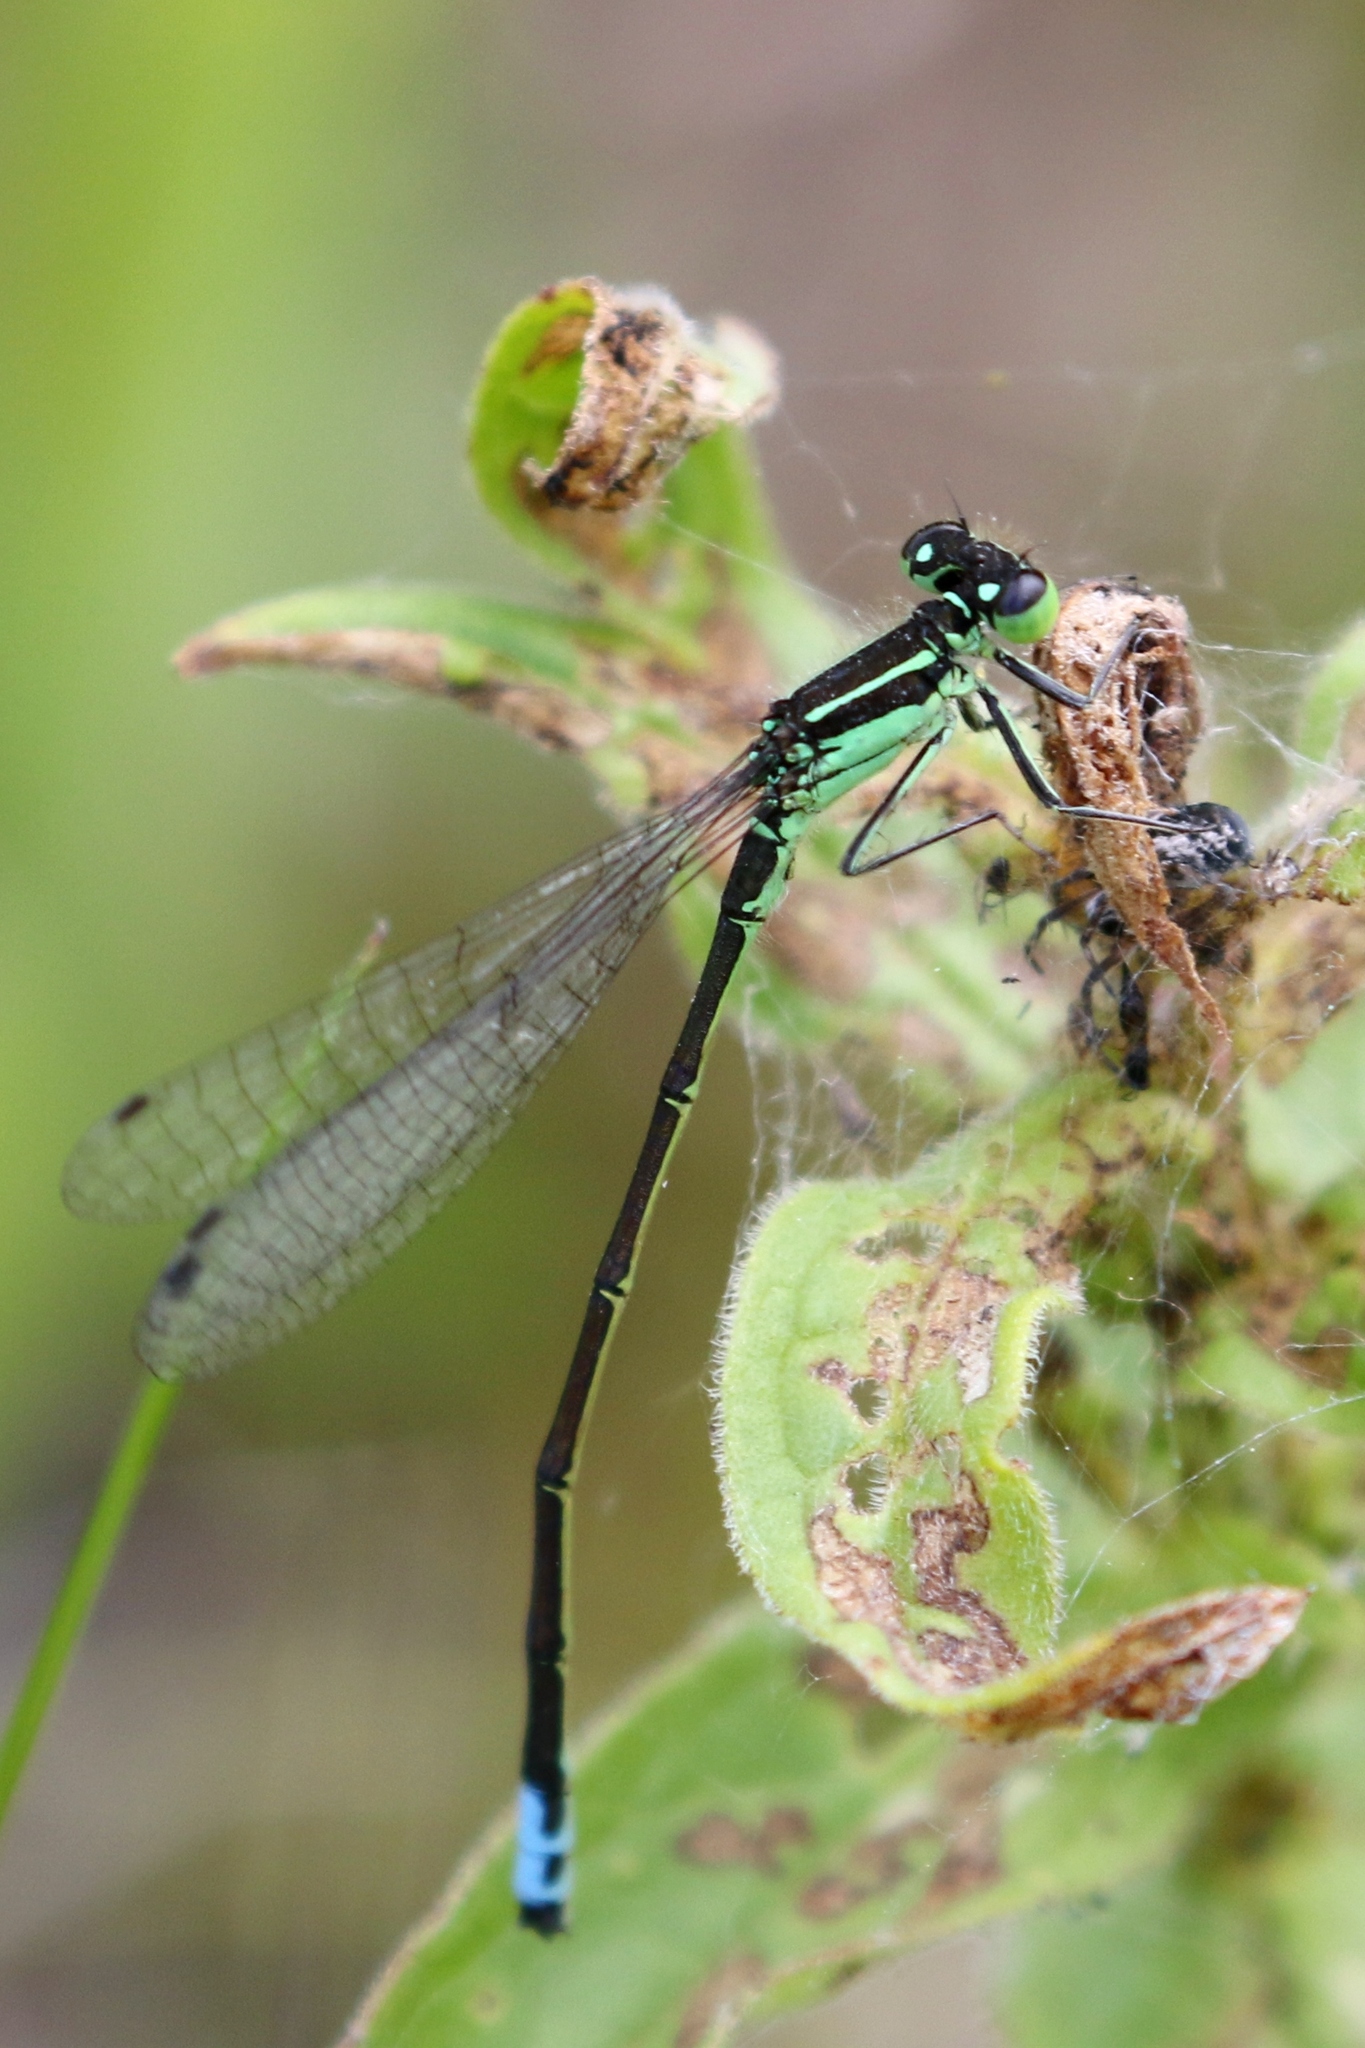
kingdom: Animalia
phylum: Arthropoda
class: Insecta
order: Odonata
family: Coenagrionidae
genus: Ischnura
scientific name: Ischnura verticalis
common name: Eastern forktail
